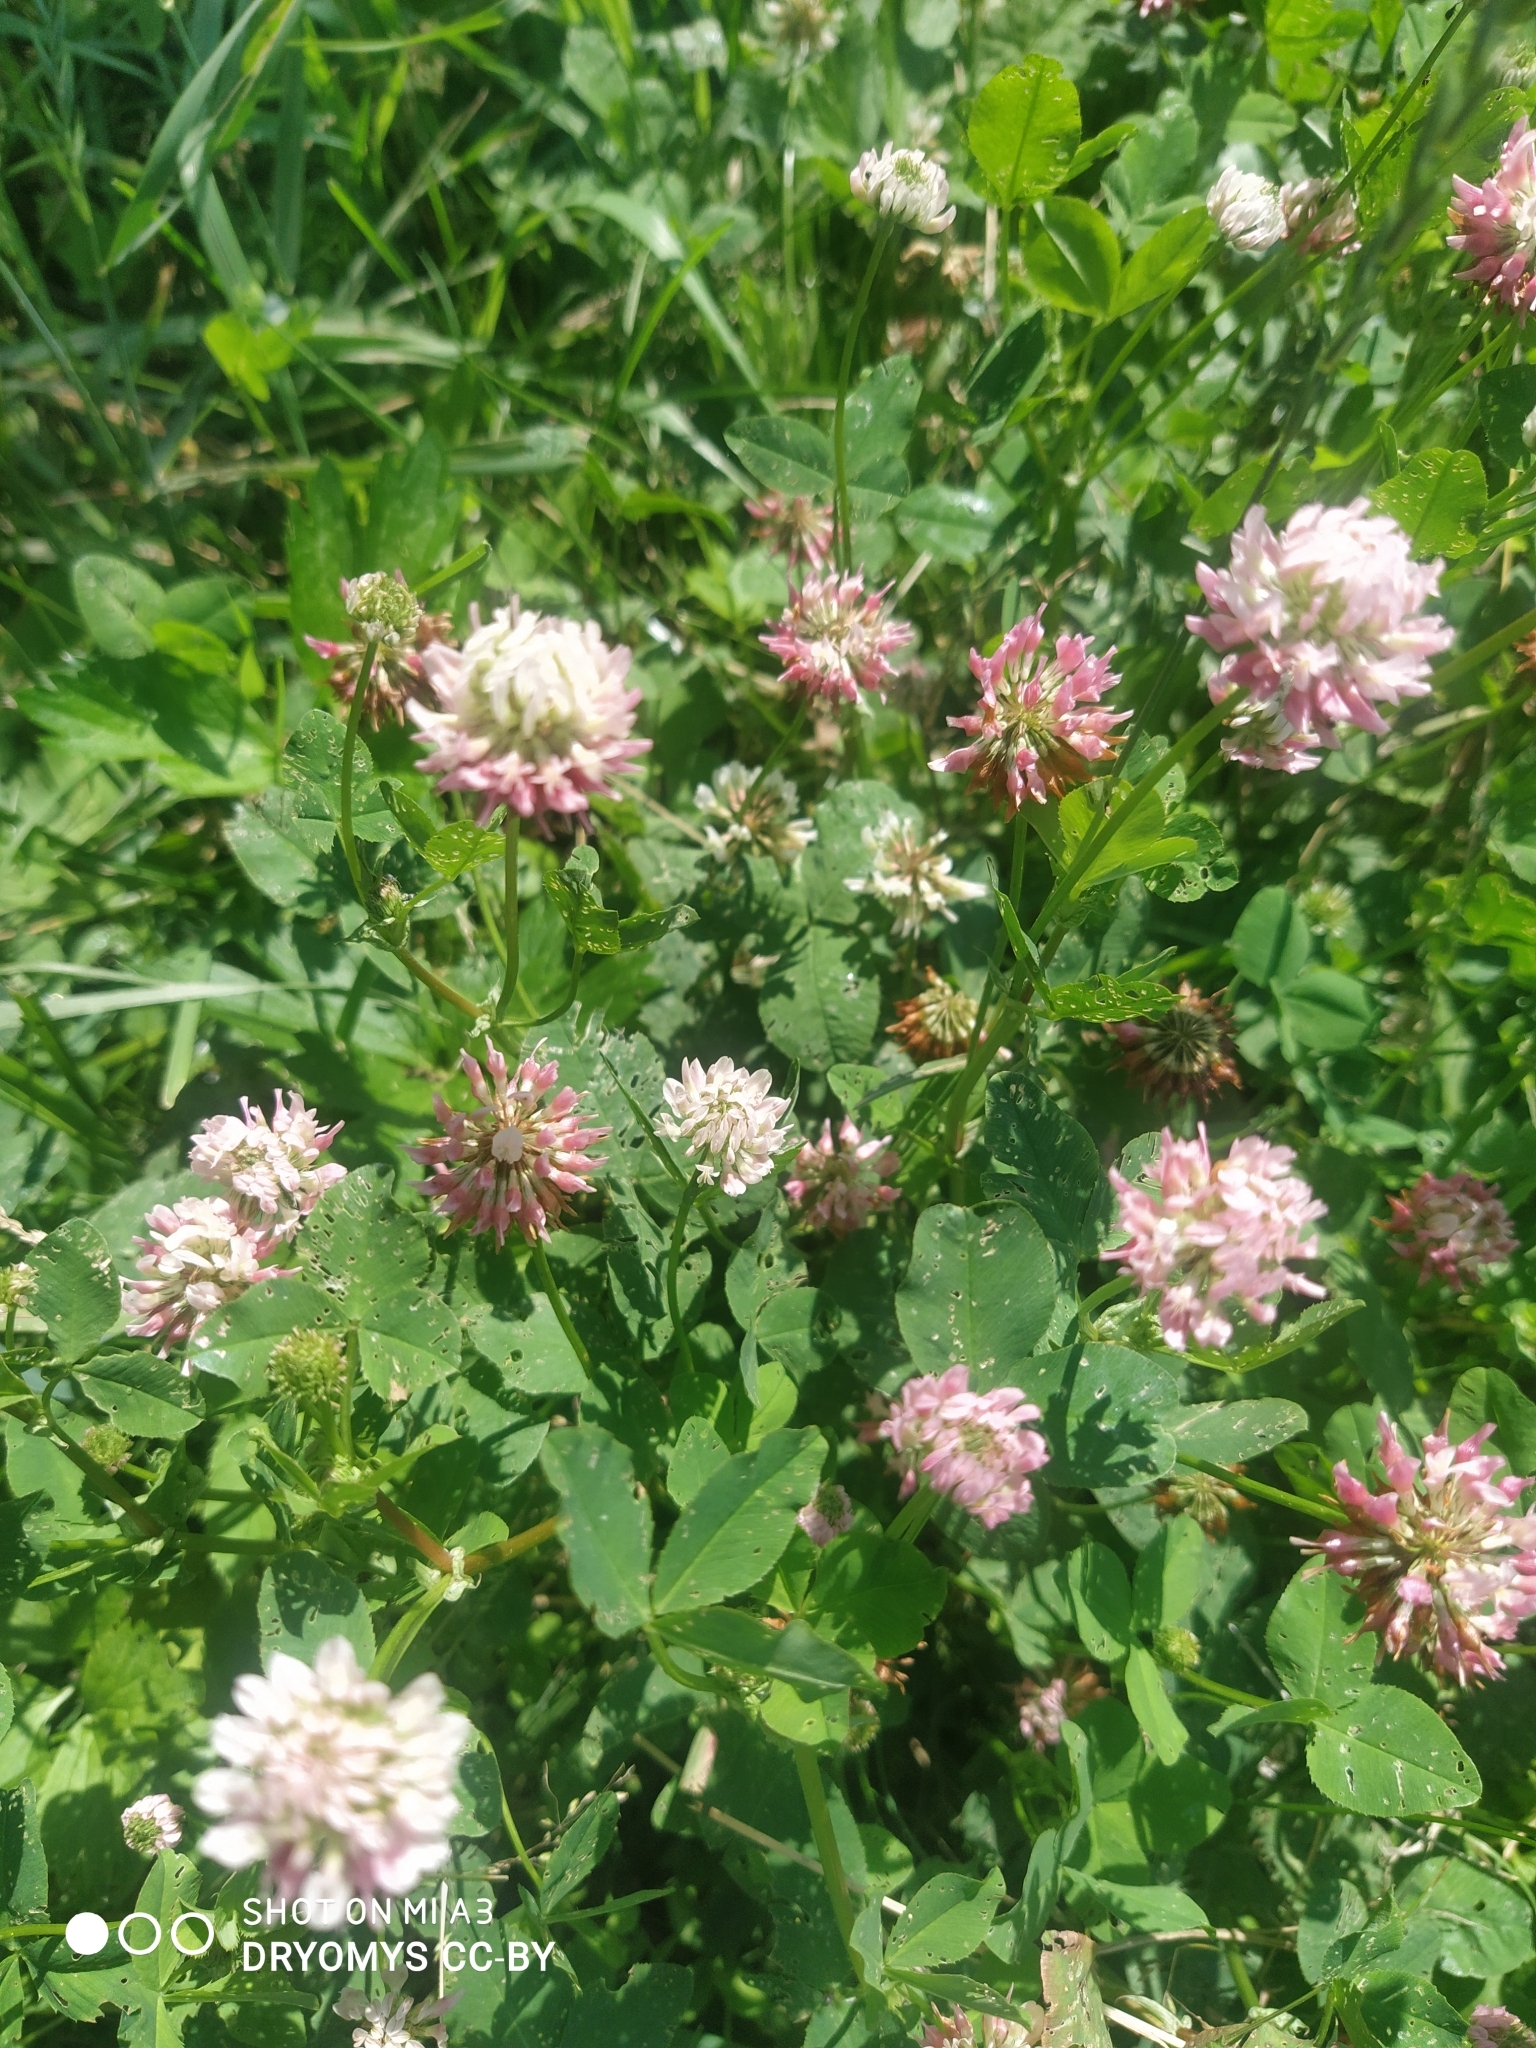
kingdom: Plantae
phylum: Tracheophyta
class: Magnoliopsida
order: Fabales
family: Fabaceae
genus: Trifolium
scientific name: Trifolium hybridum
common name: Alsike clover
